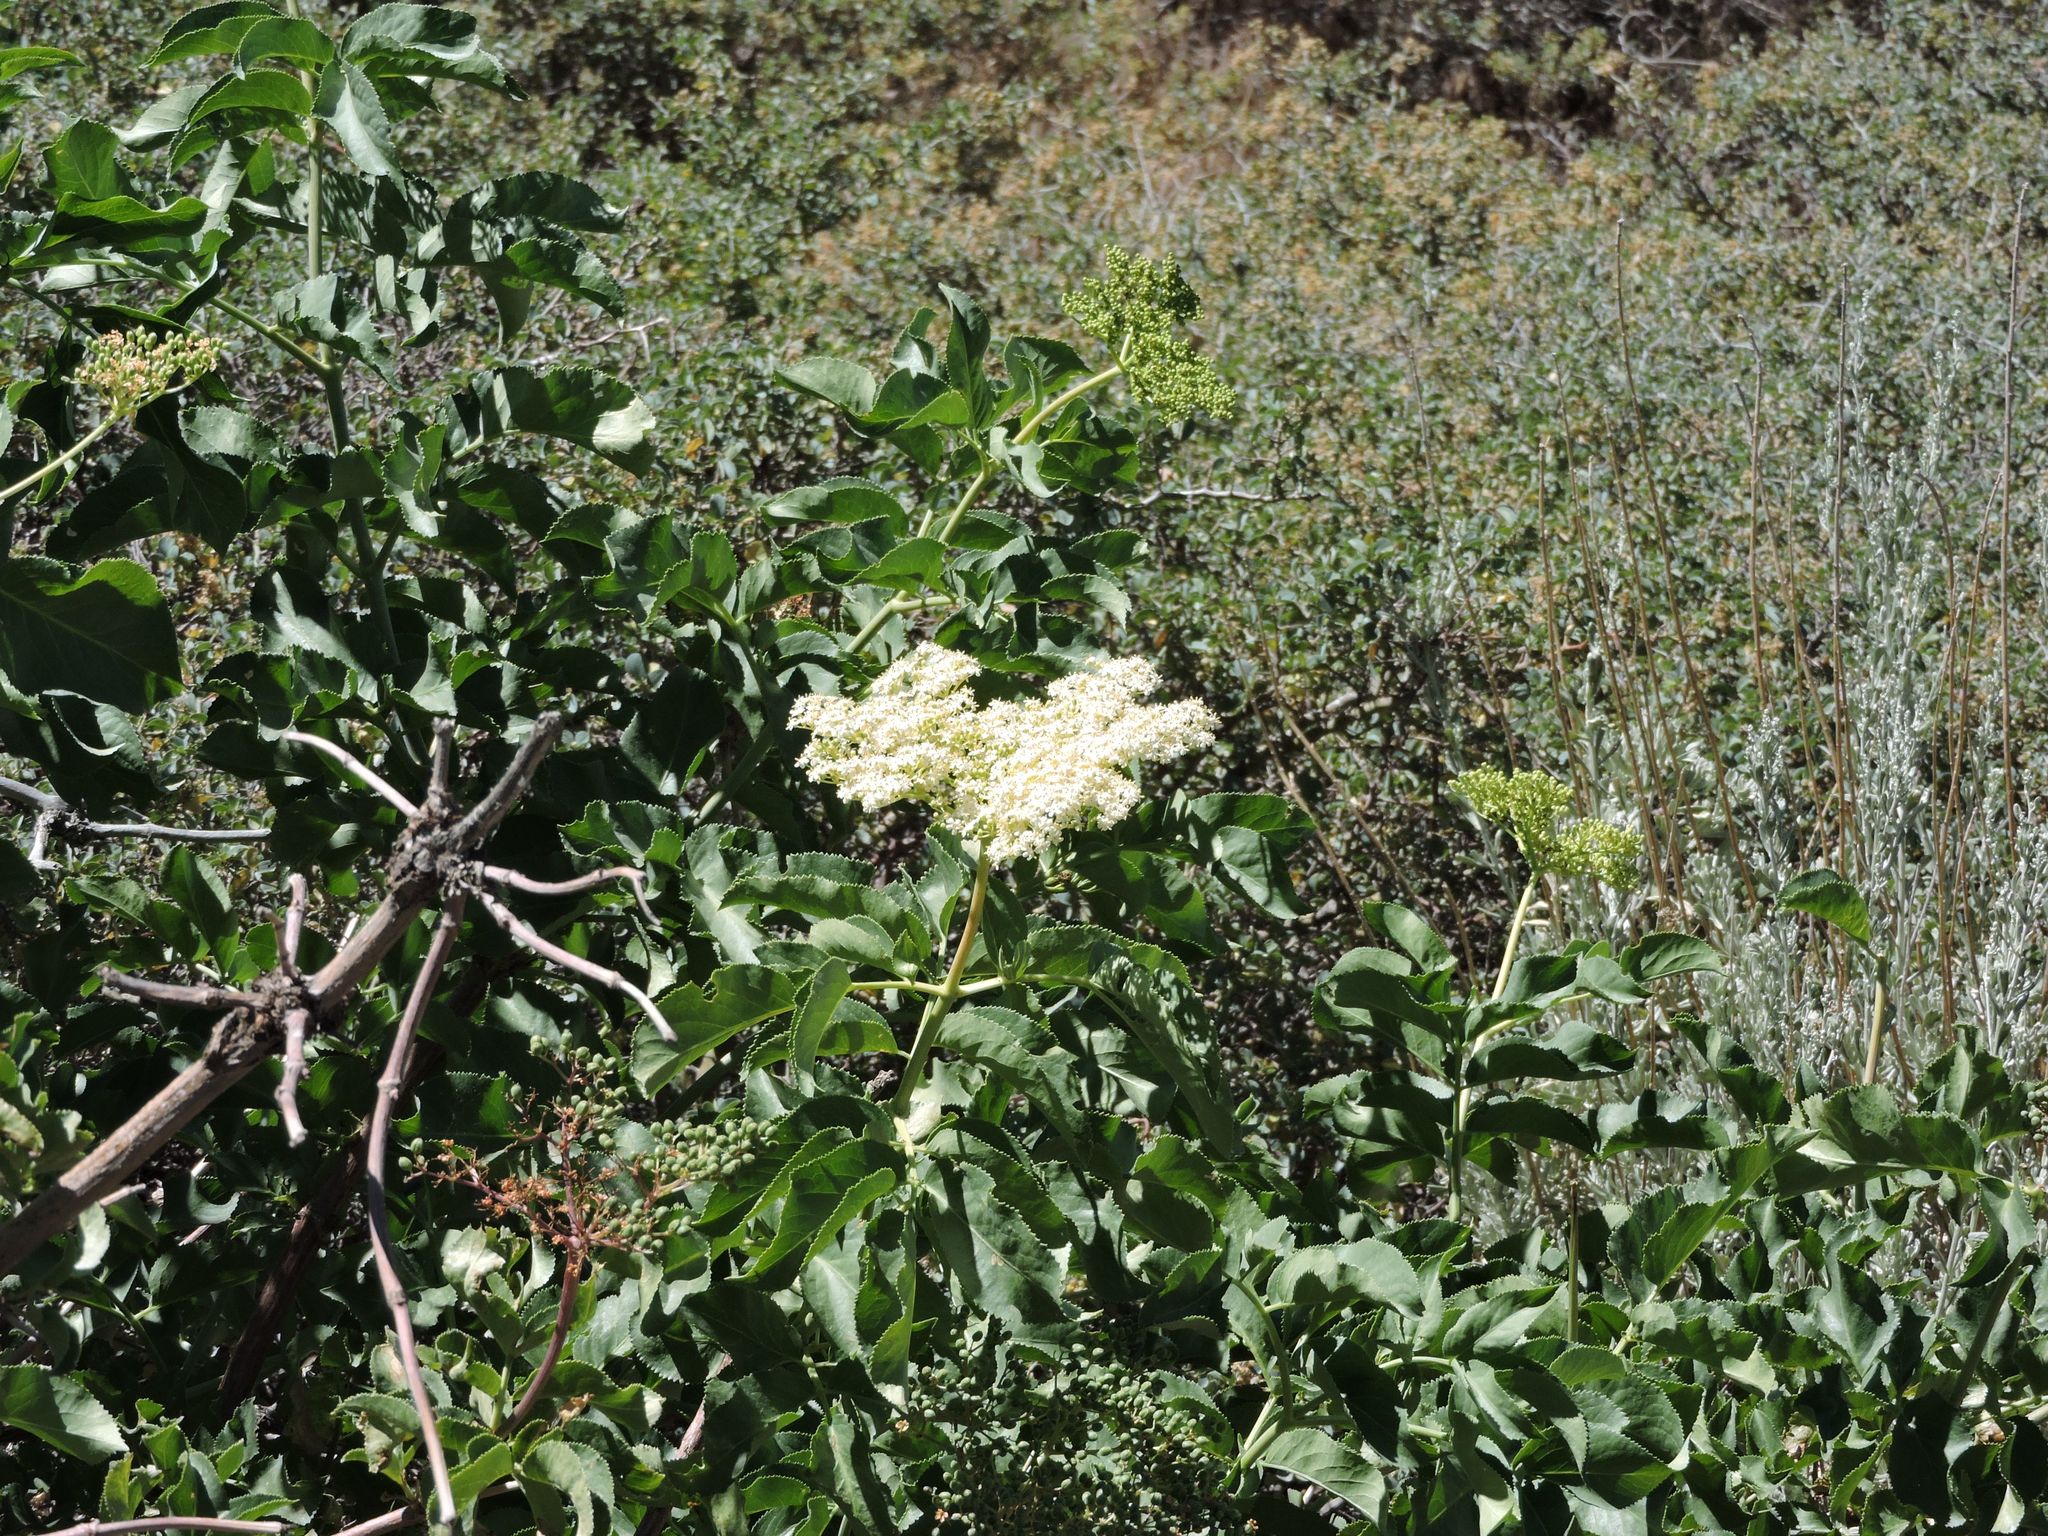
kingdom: Plantae
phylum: Tracheophyta
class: Magnoliopsida
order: Dipsacales
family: Viburnaceae
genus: Sambucus
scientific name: Sambucus cerulea
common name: Blue elder
